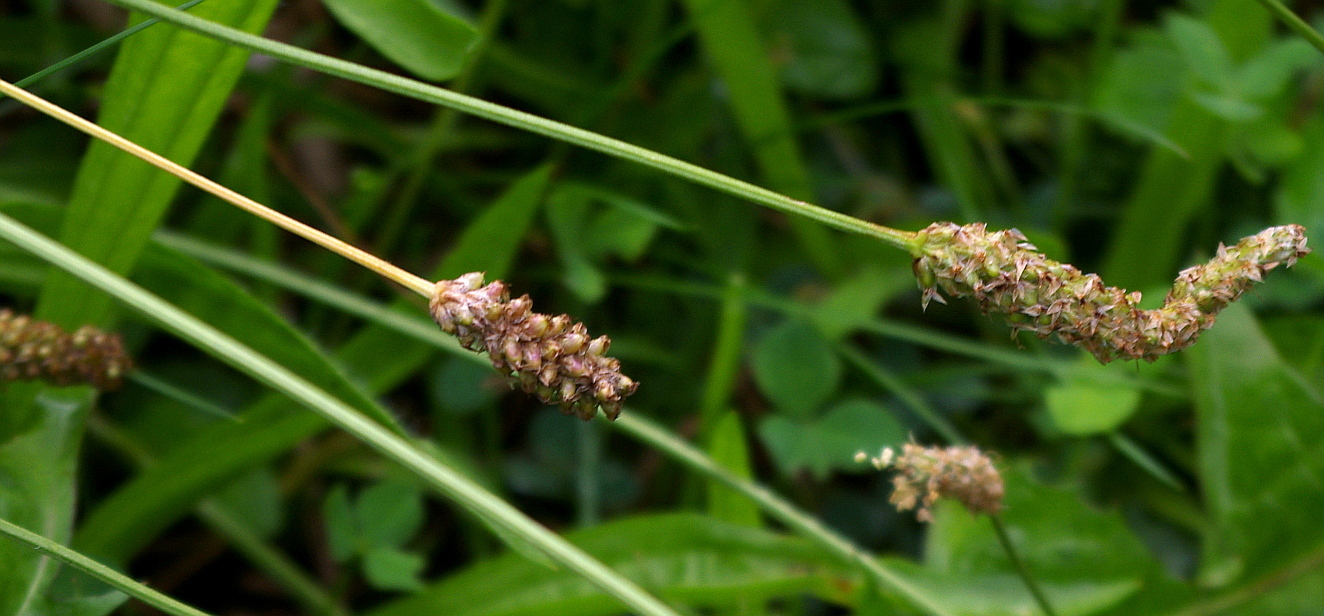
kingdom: Plantae
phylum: Tracheophyta
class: Magnoliopsida
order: Lamiales
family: Plantaginaceae
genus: Plantago
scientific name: Plantago lanceolata
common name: Ribwort plantain
